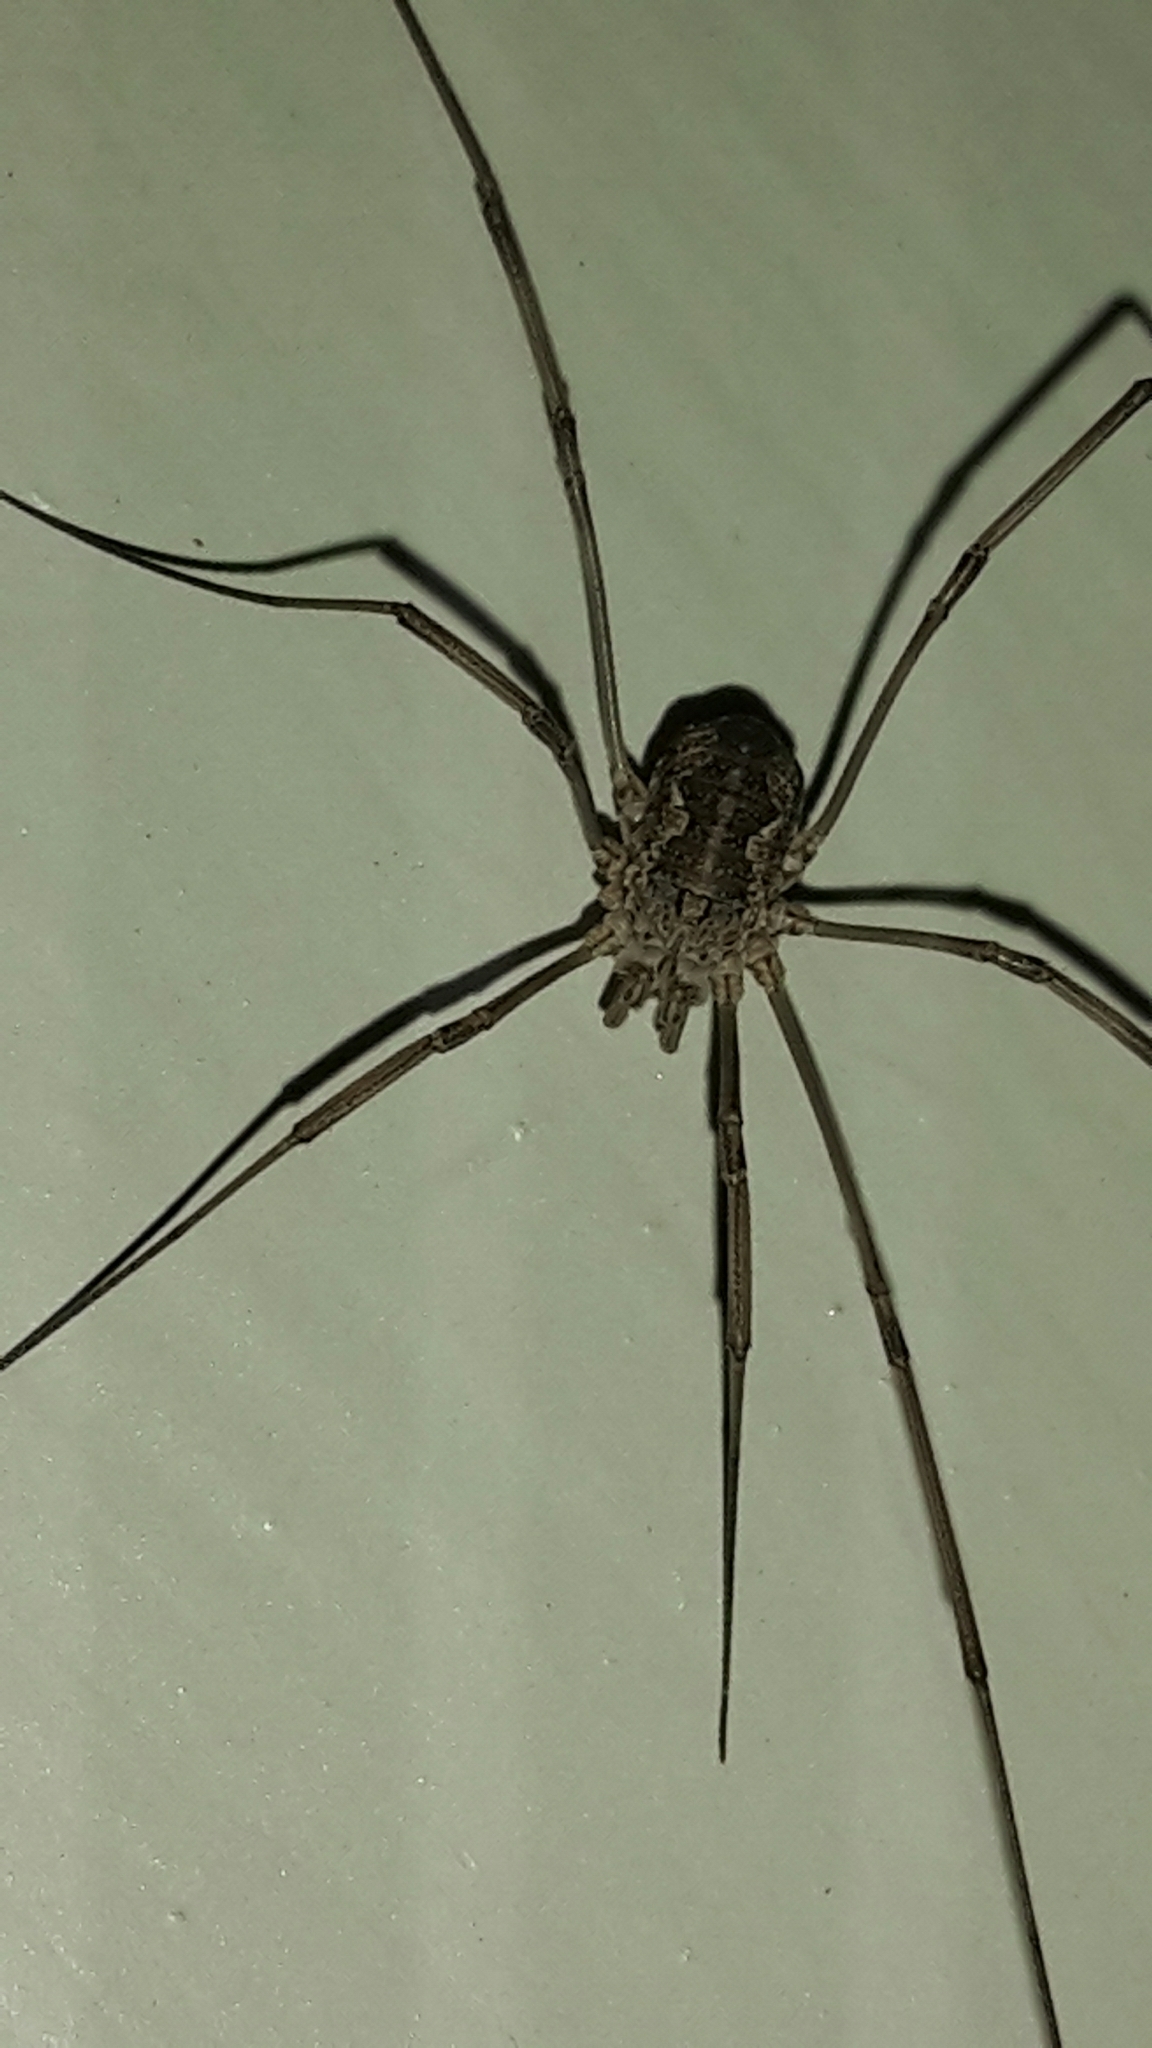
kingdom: Animalia
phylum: Arthropoda
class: Arachnida
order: Opiliones
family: Phalangiidae
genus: Phalangium
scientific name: Phalangium opilio
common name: Daddy longleg
